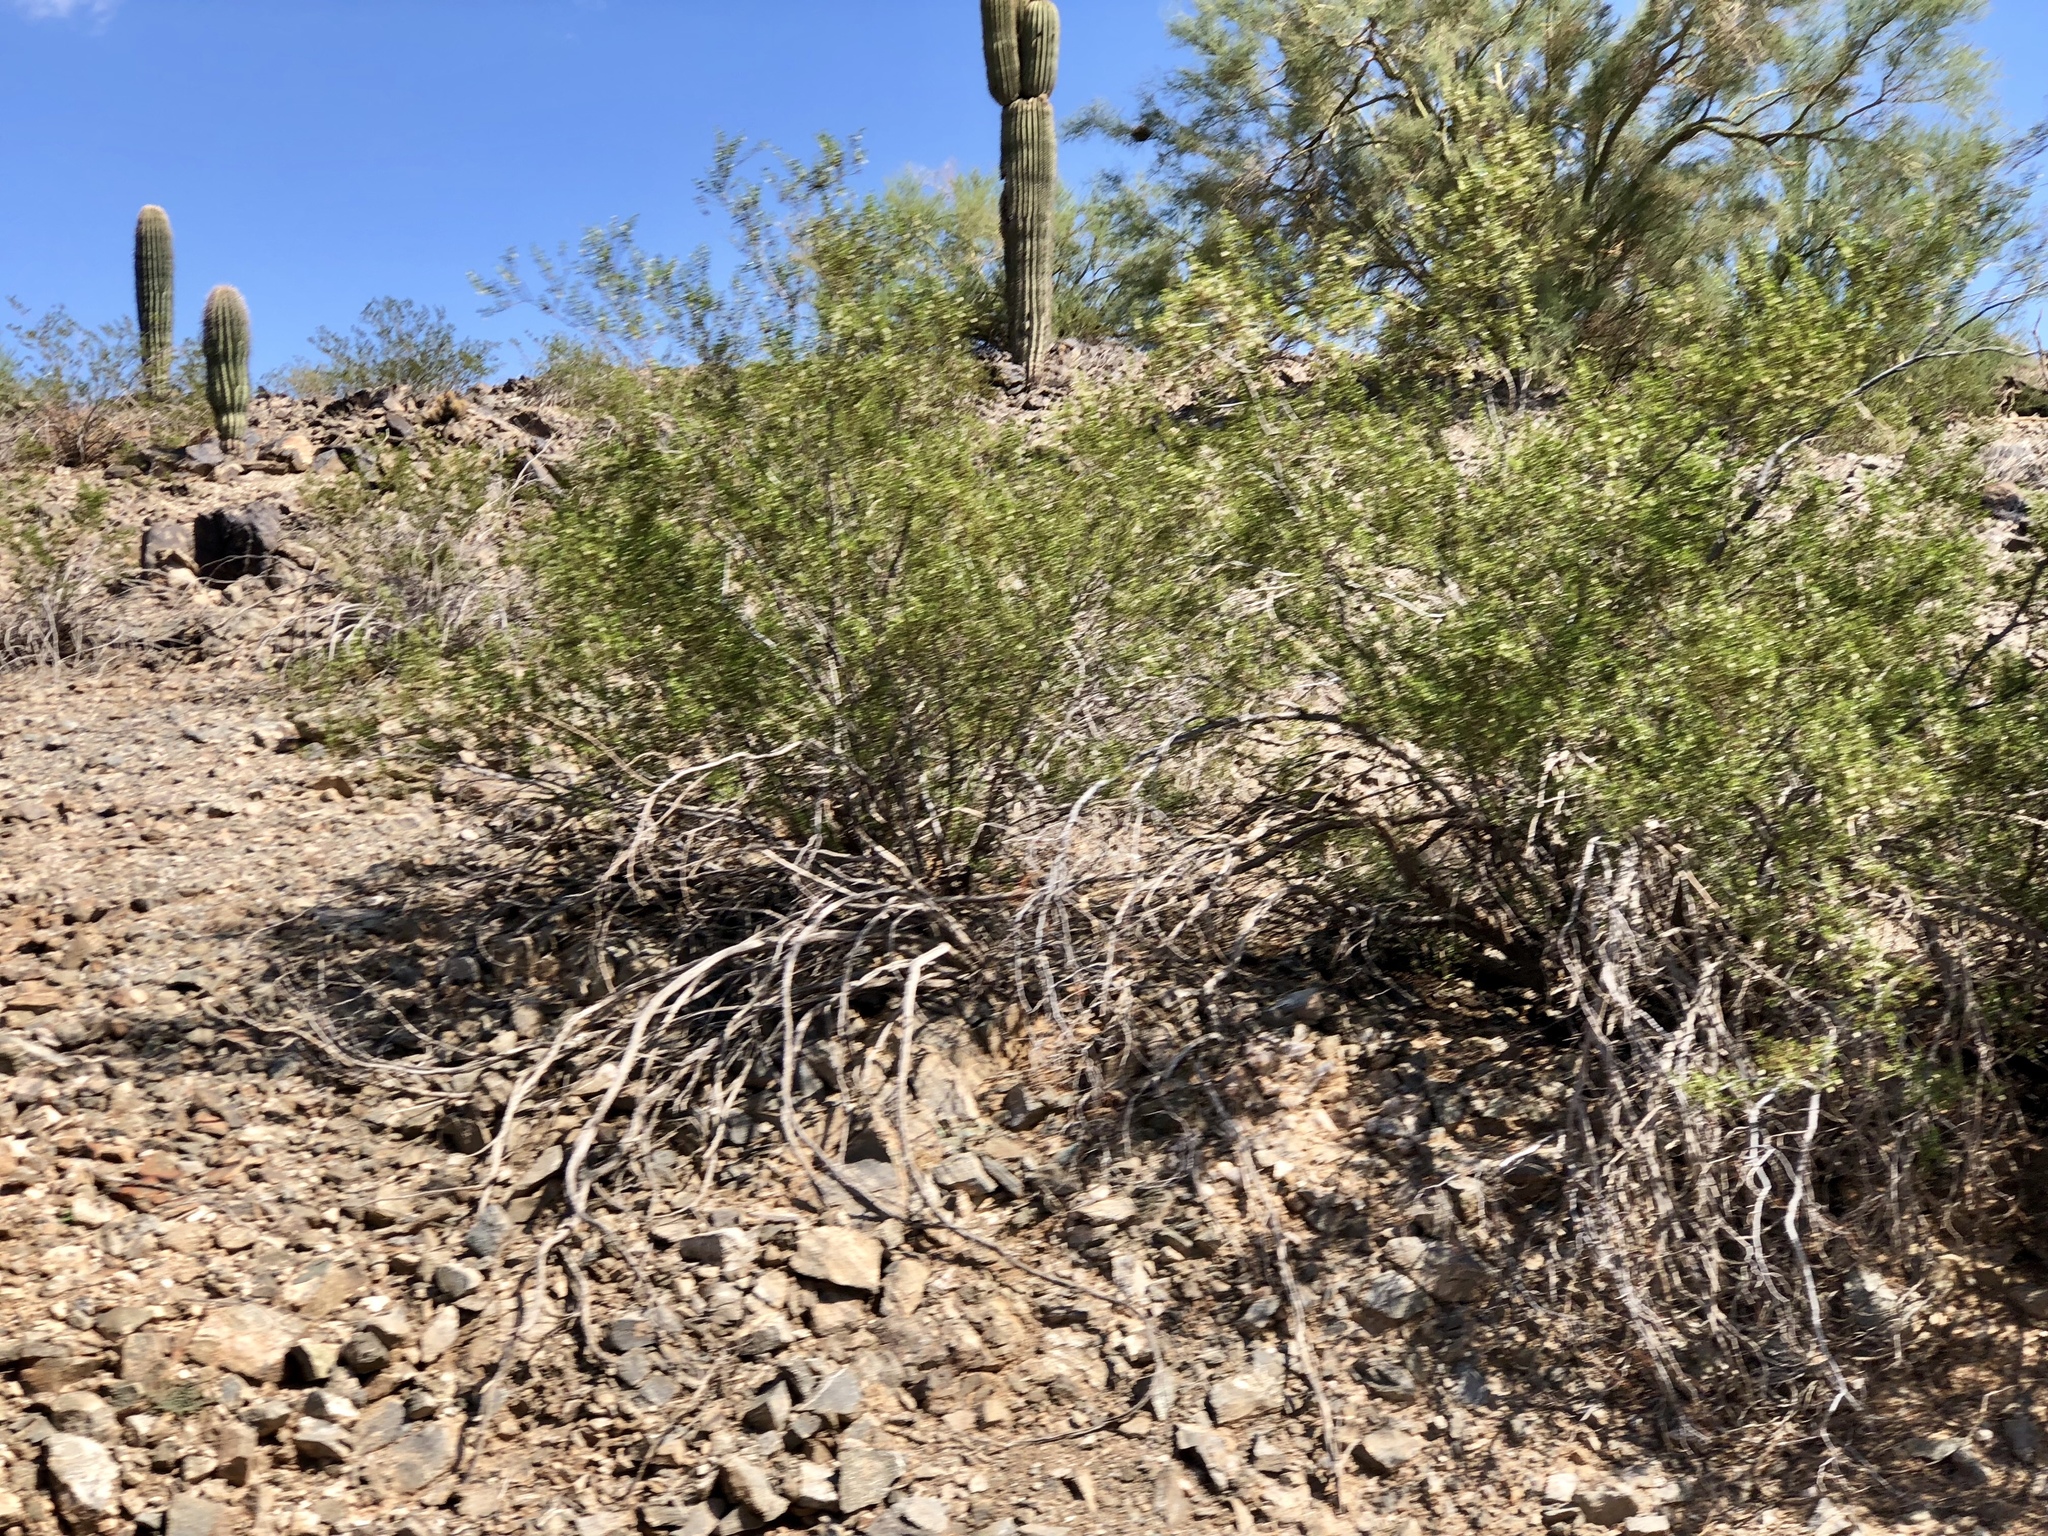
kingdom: Plantae
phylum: Tracheophyta
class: Magnoliopsida
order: Zygophyllales
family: Zygophyllaceae
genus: Larrea
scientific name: Larrea tridentata
